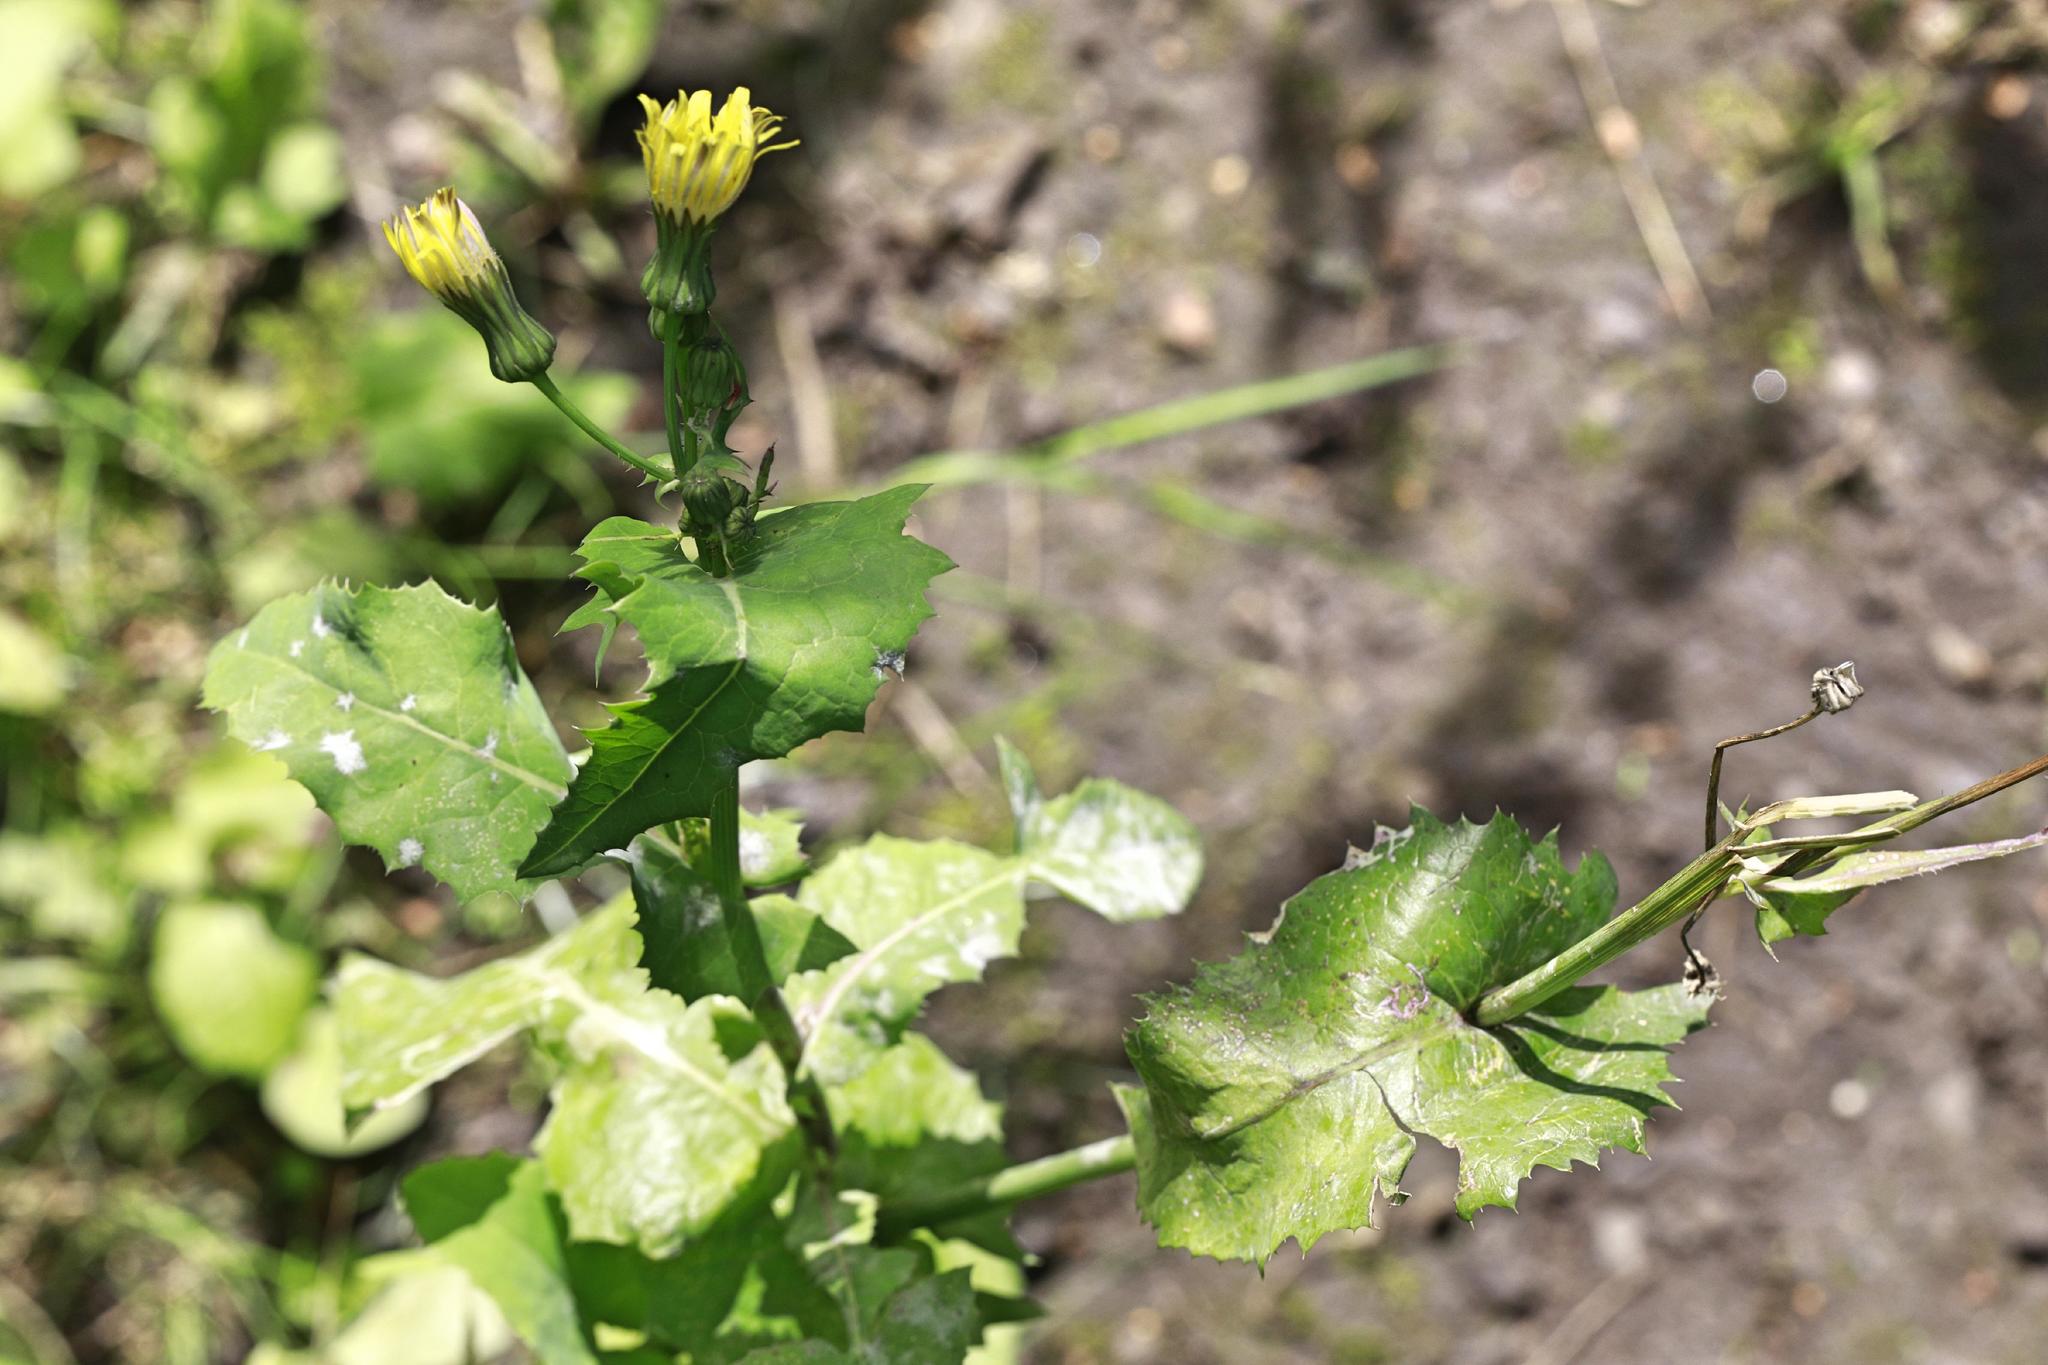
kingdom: Plantae
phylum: Tracheophyta
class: Magnoliopsida
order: Asterales
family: Asteraceae
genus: Sonchus
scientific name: Sonchus oleraceus
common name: Common sowthistle
